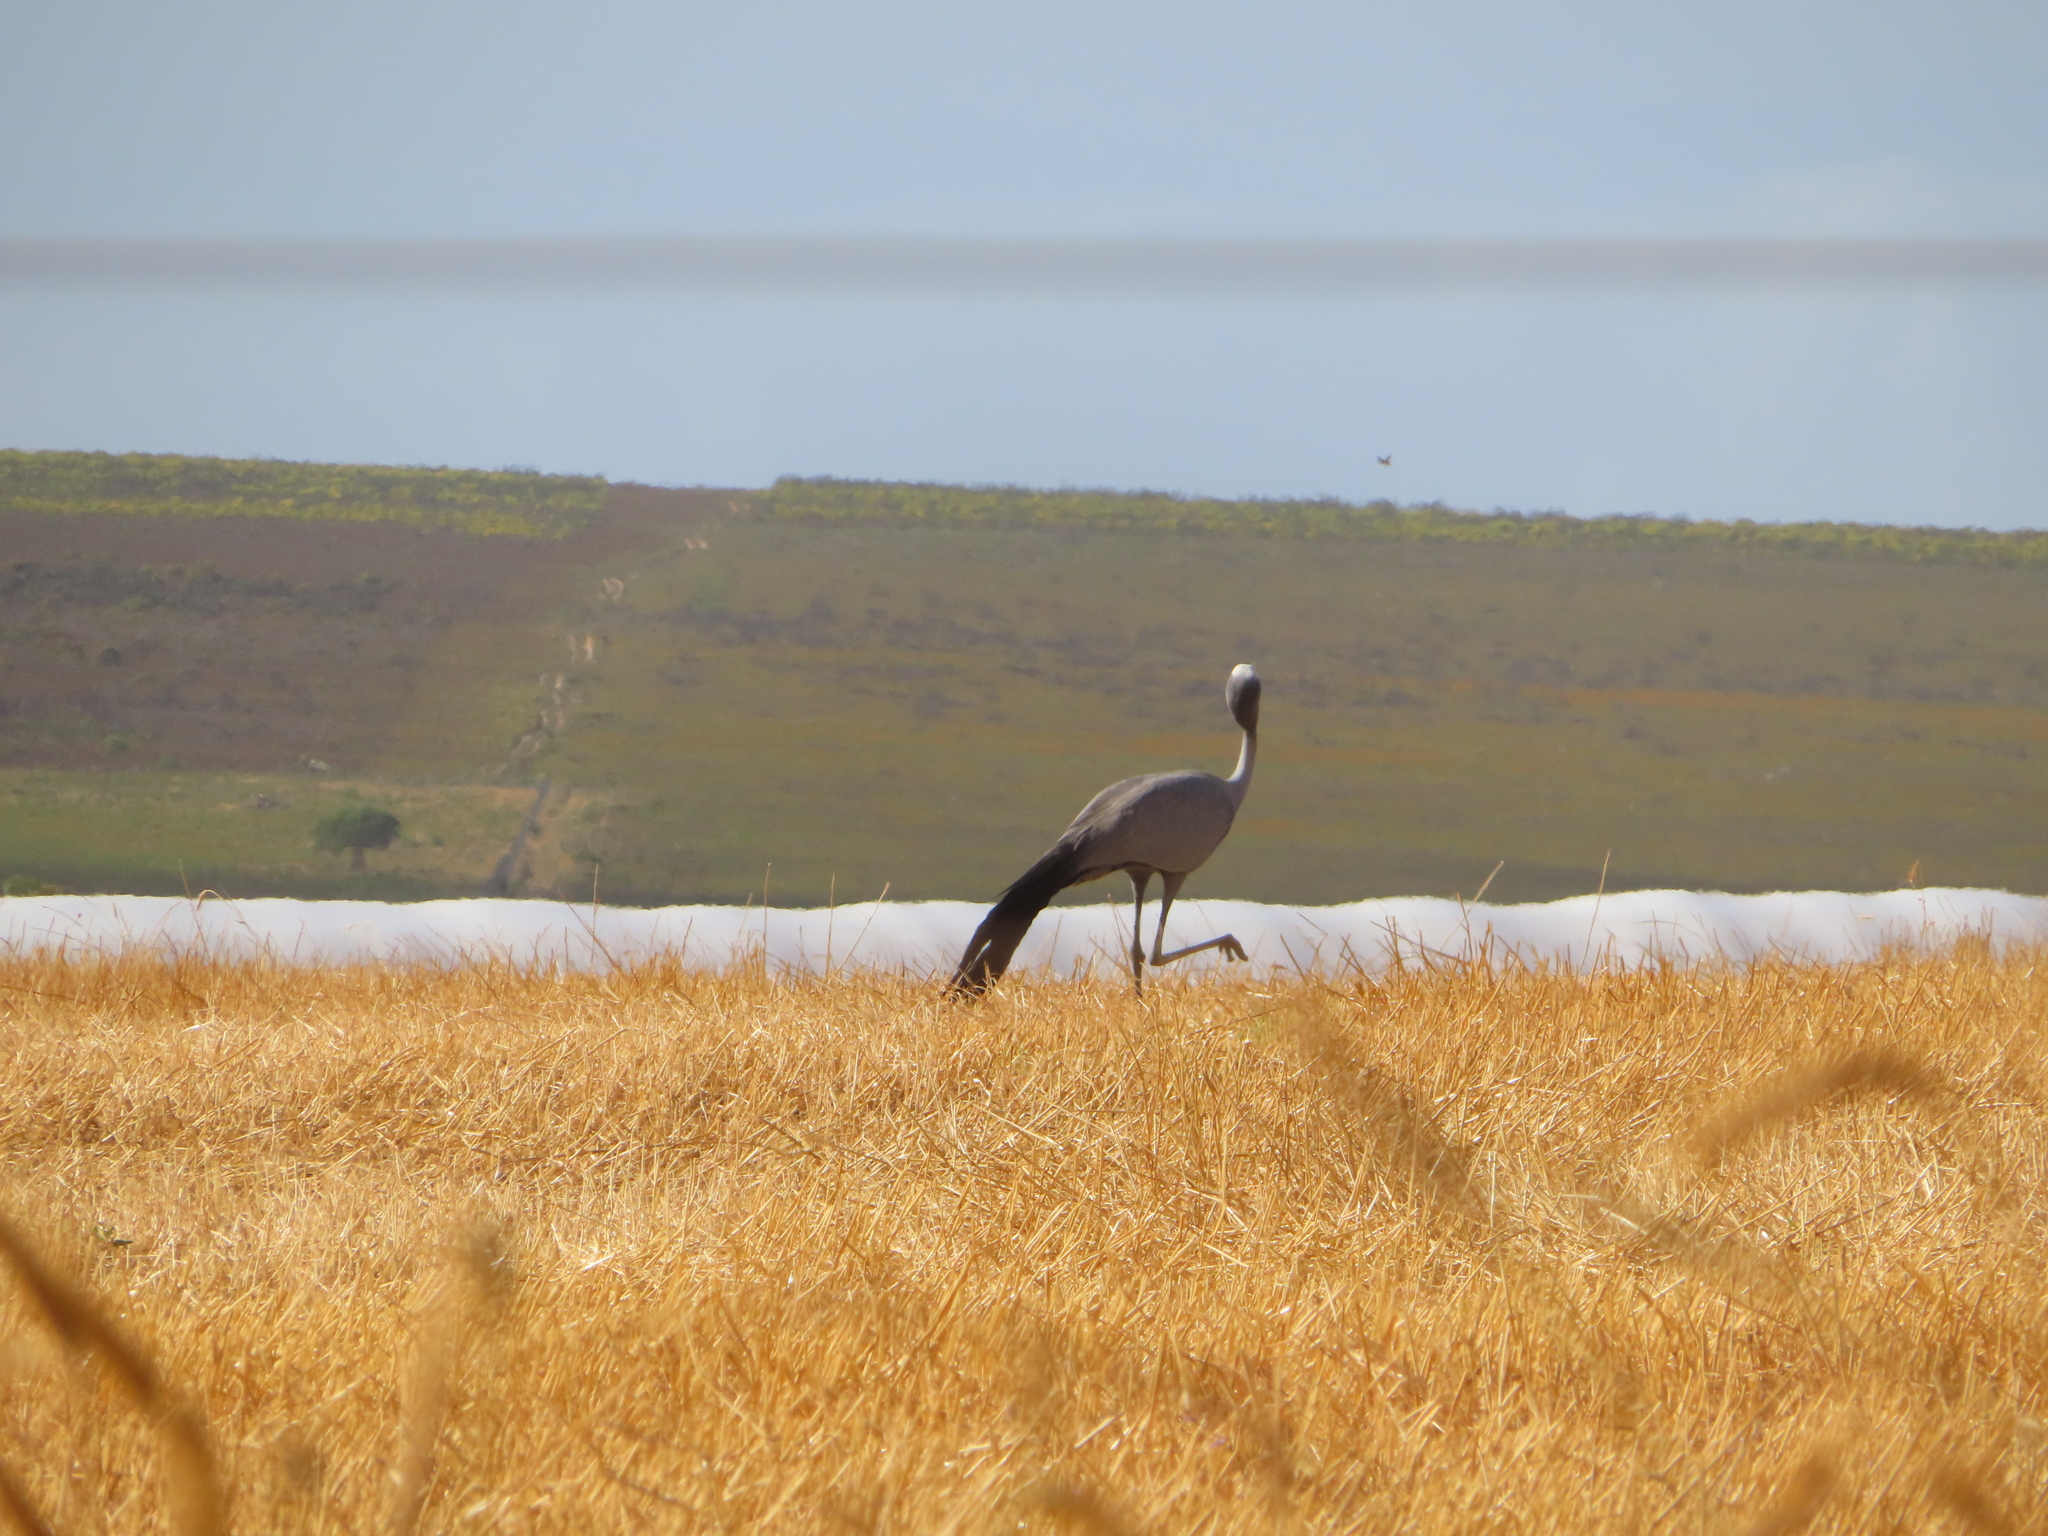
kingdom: Animalia
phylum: Chordata
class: Aves
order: Gruiformes
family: Gruidae
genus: Anthropoides
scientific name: Anthropoides paradiseus
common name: Blue crane
